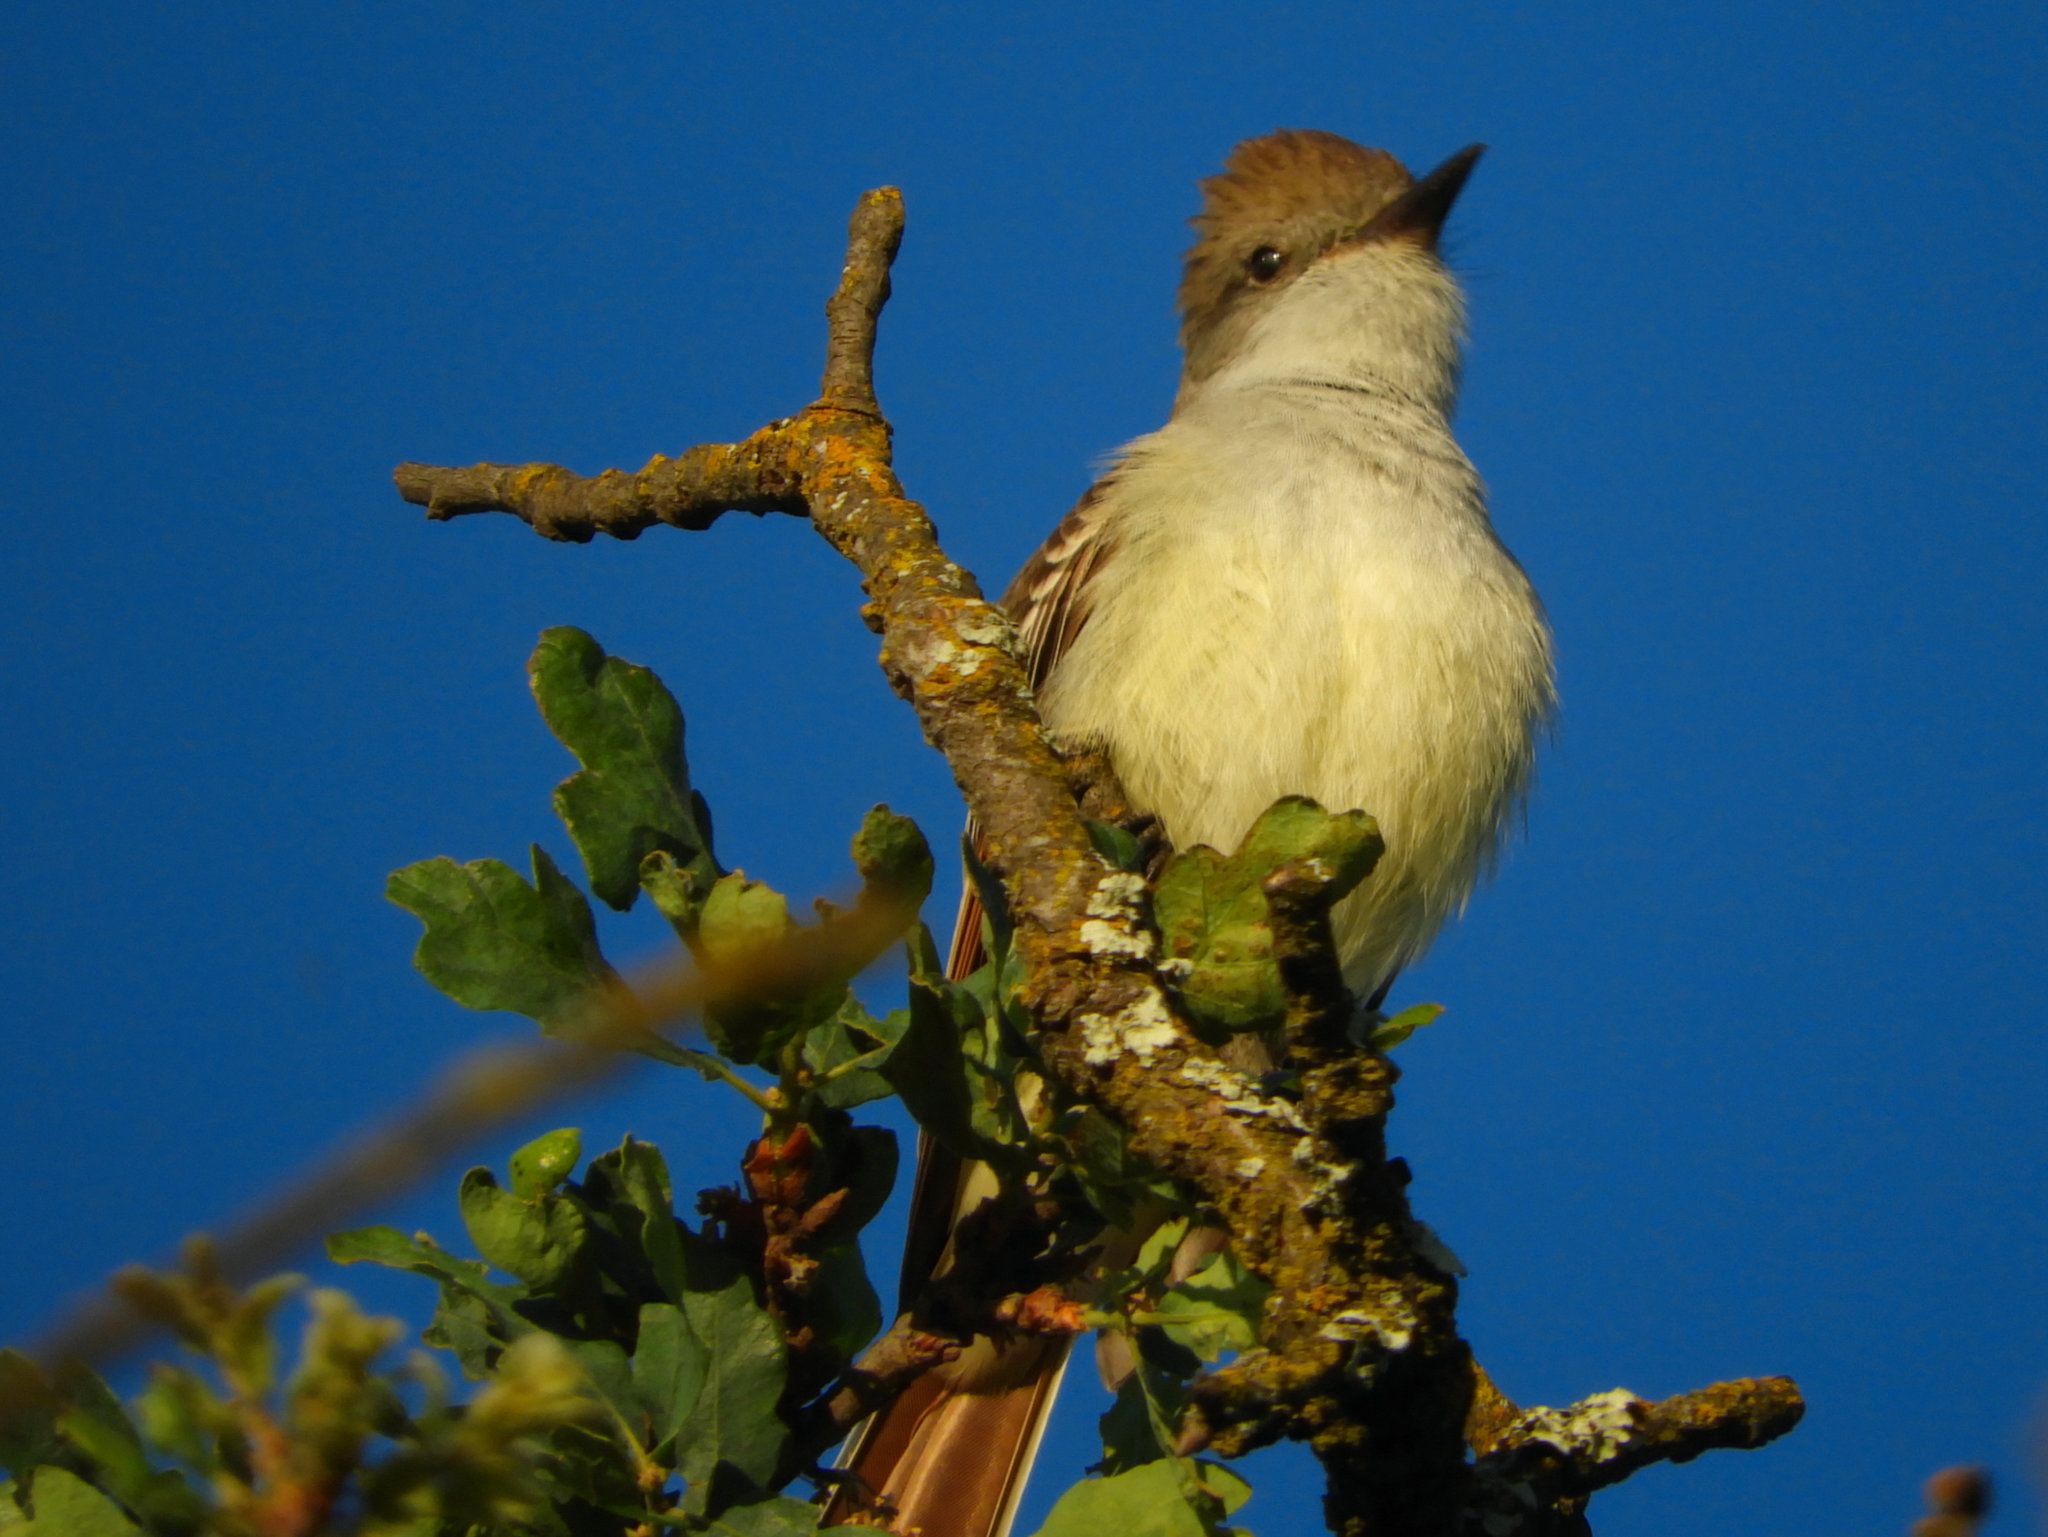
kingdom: Animalia
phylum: Chordata
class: Aves
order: Passeriformes
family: Tyrannidae
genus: Myiarchus
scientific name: Myiarchus cinerascens
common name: Ash-throated flycatcher
